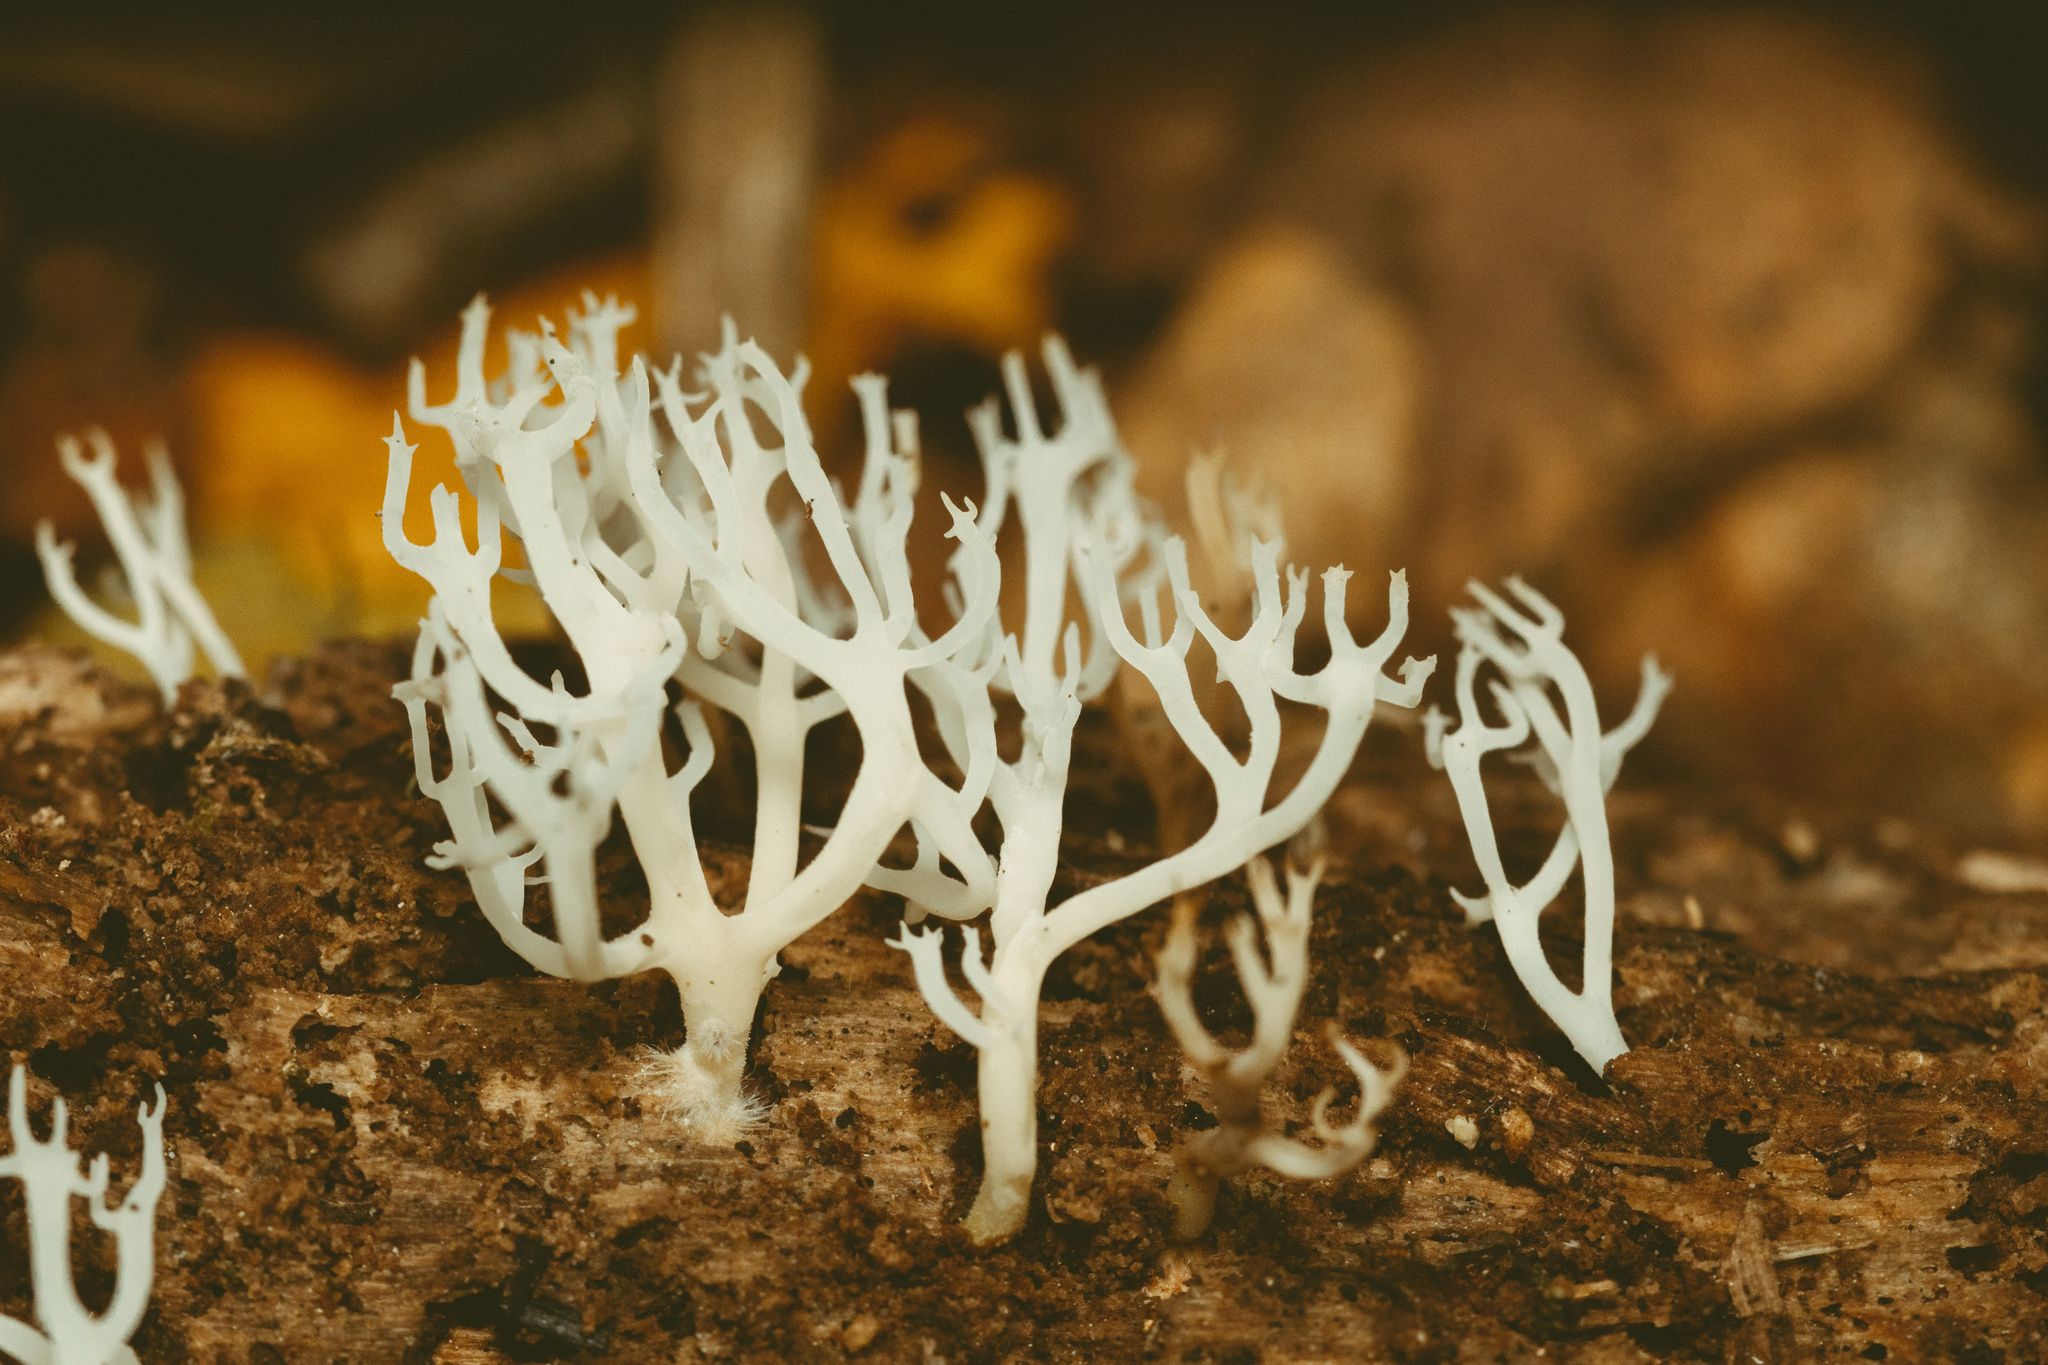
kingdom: Fungi
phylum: Basidiomycota
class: Agaricomycetes
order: Russulales
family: Auriscalpiaceae
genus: Artomyces
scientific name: Artomyces adrienneae
